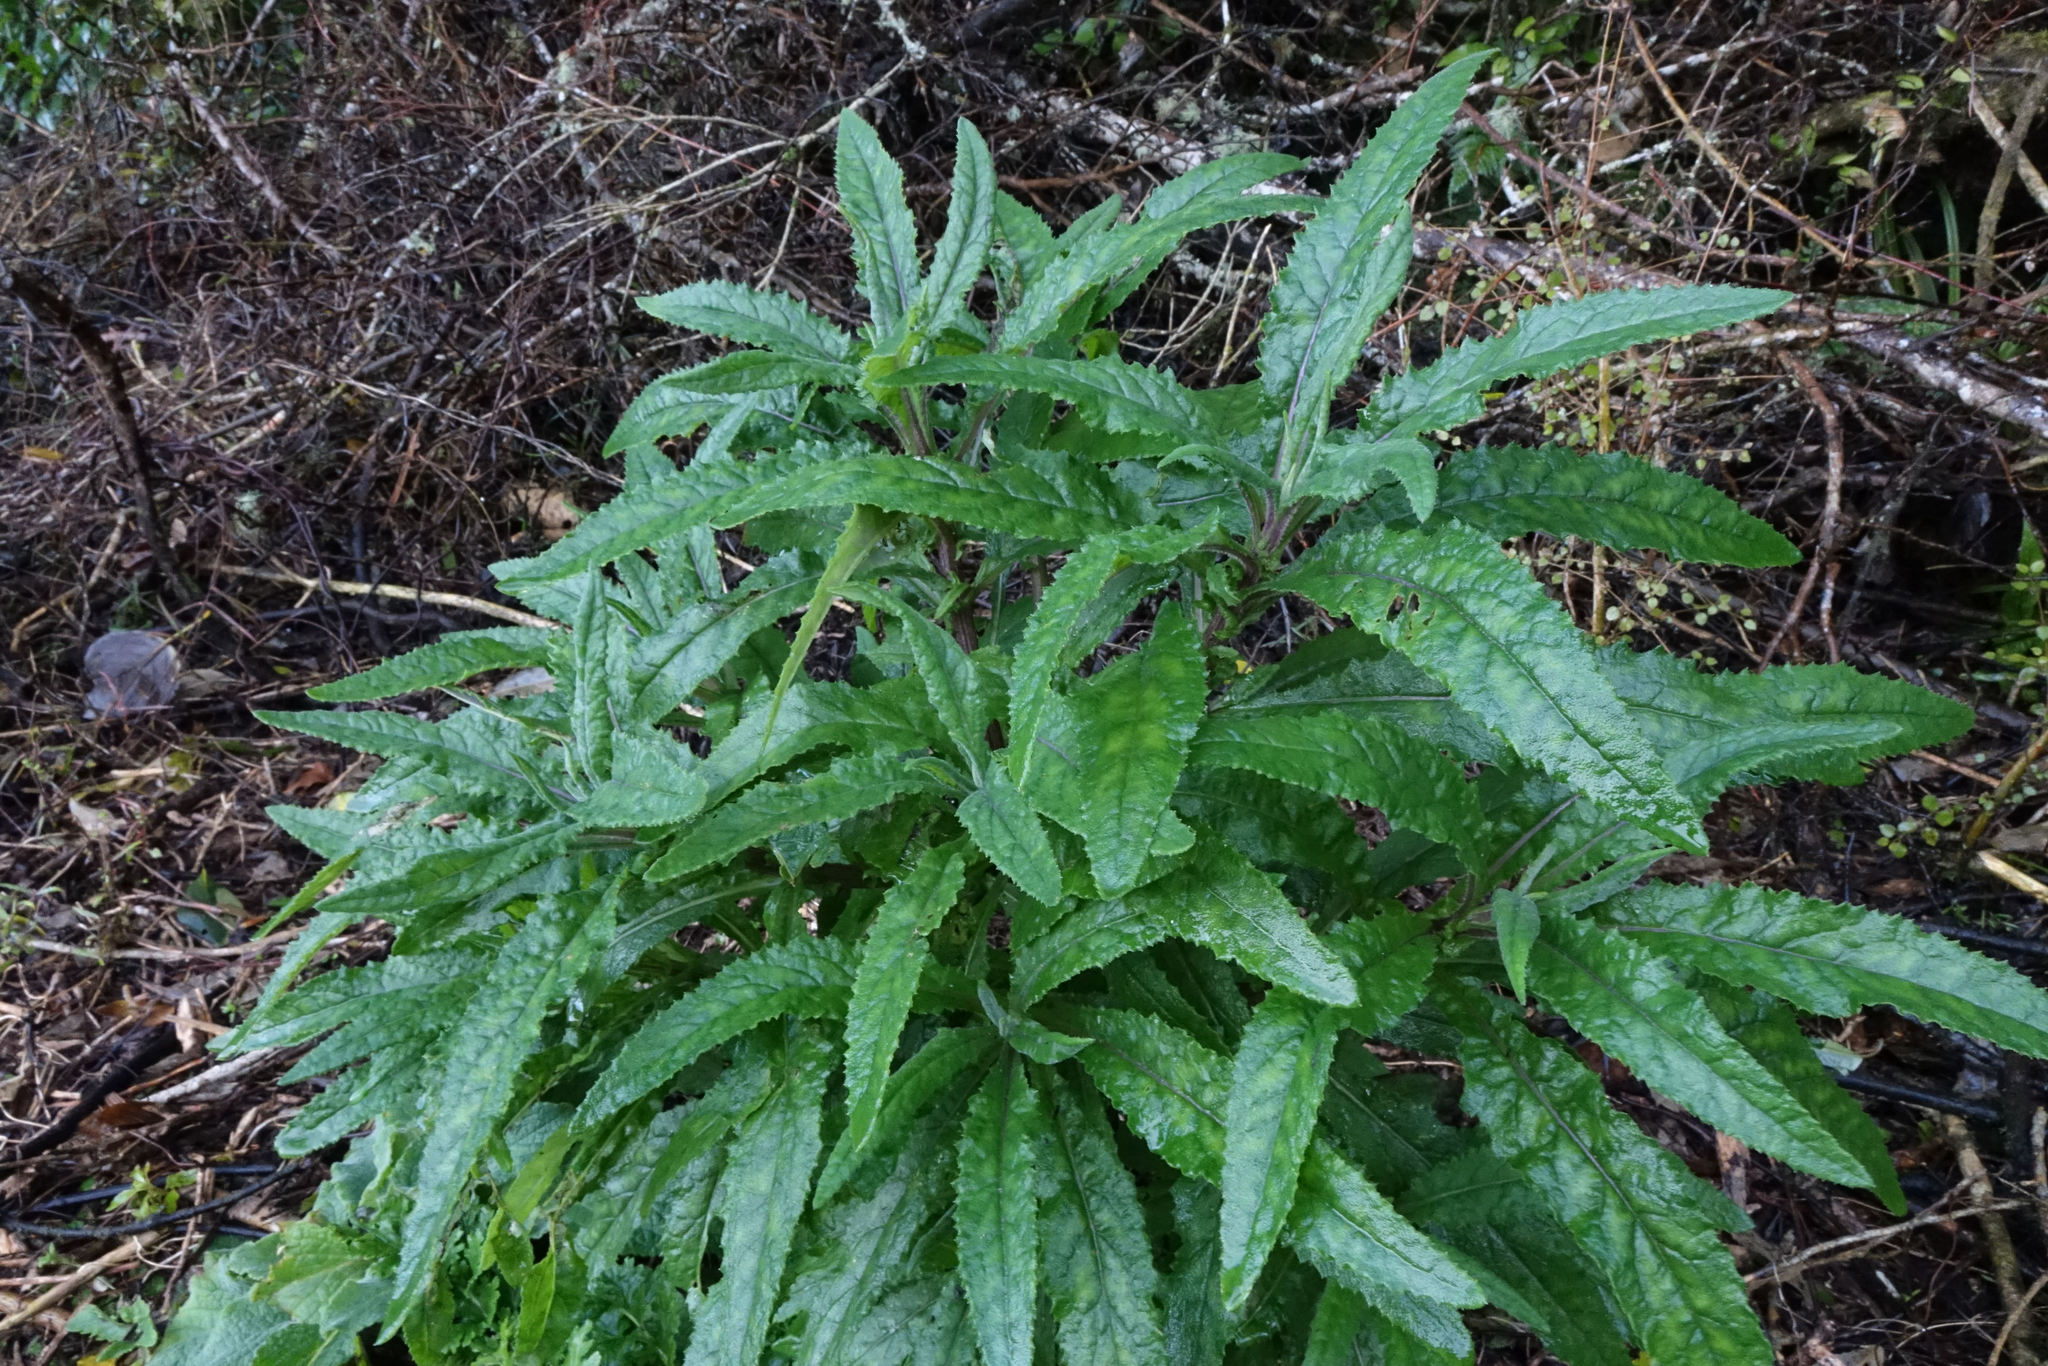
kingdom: Plantae
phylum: Tracheophyta
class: Magnoliopsida
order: Asterales
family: Asteraceae
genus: Senecio
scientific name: Senecio minimus
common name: Toothed fireweed
